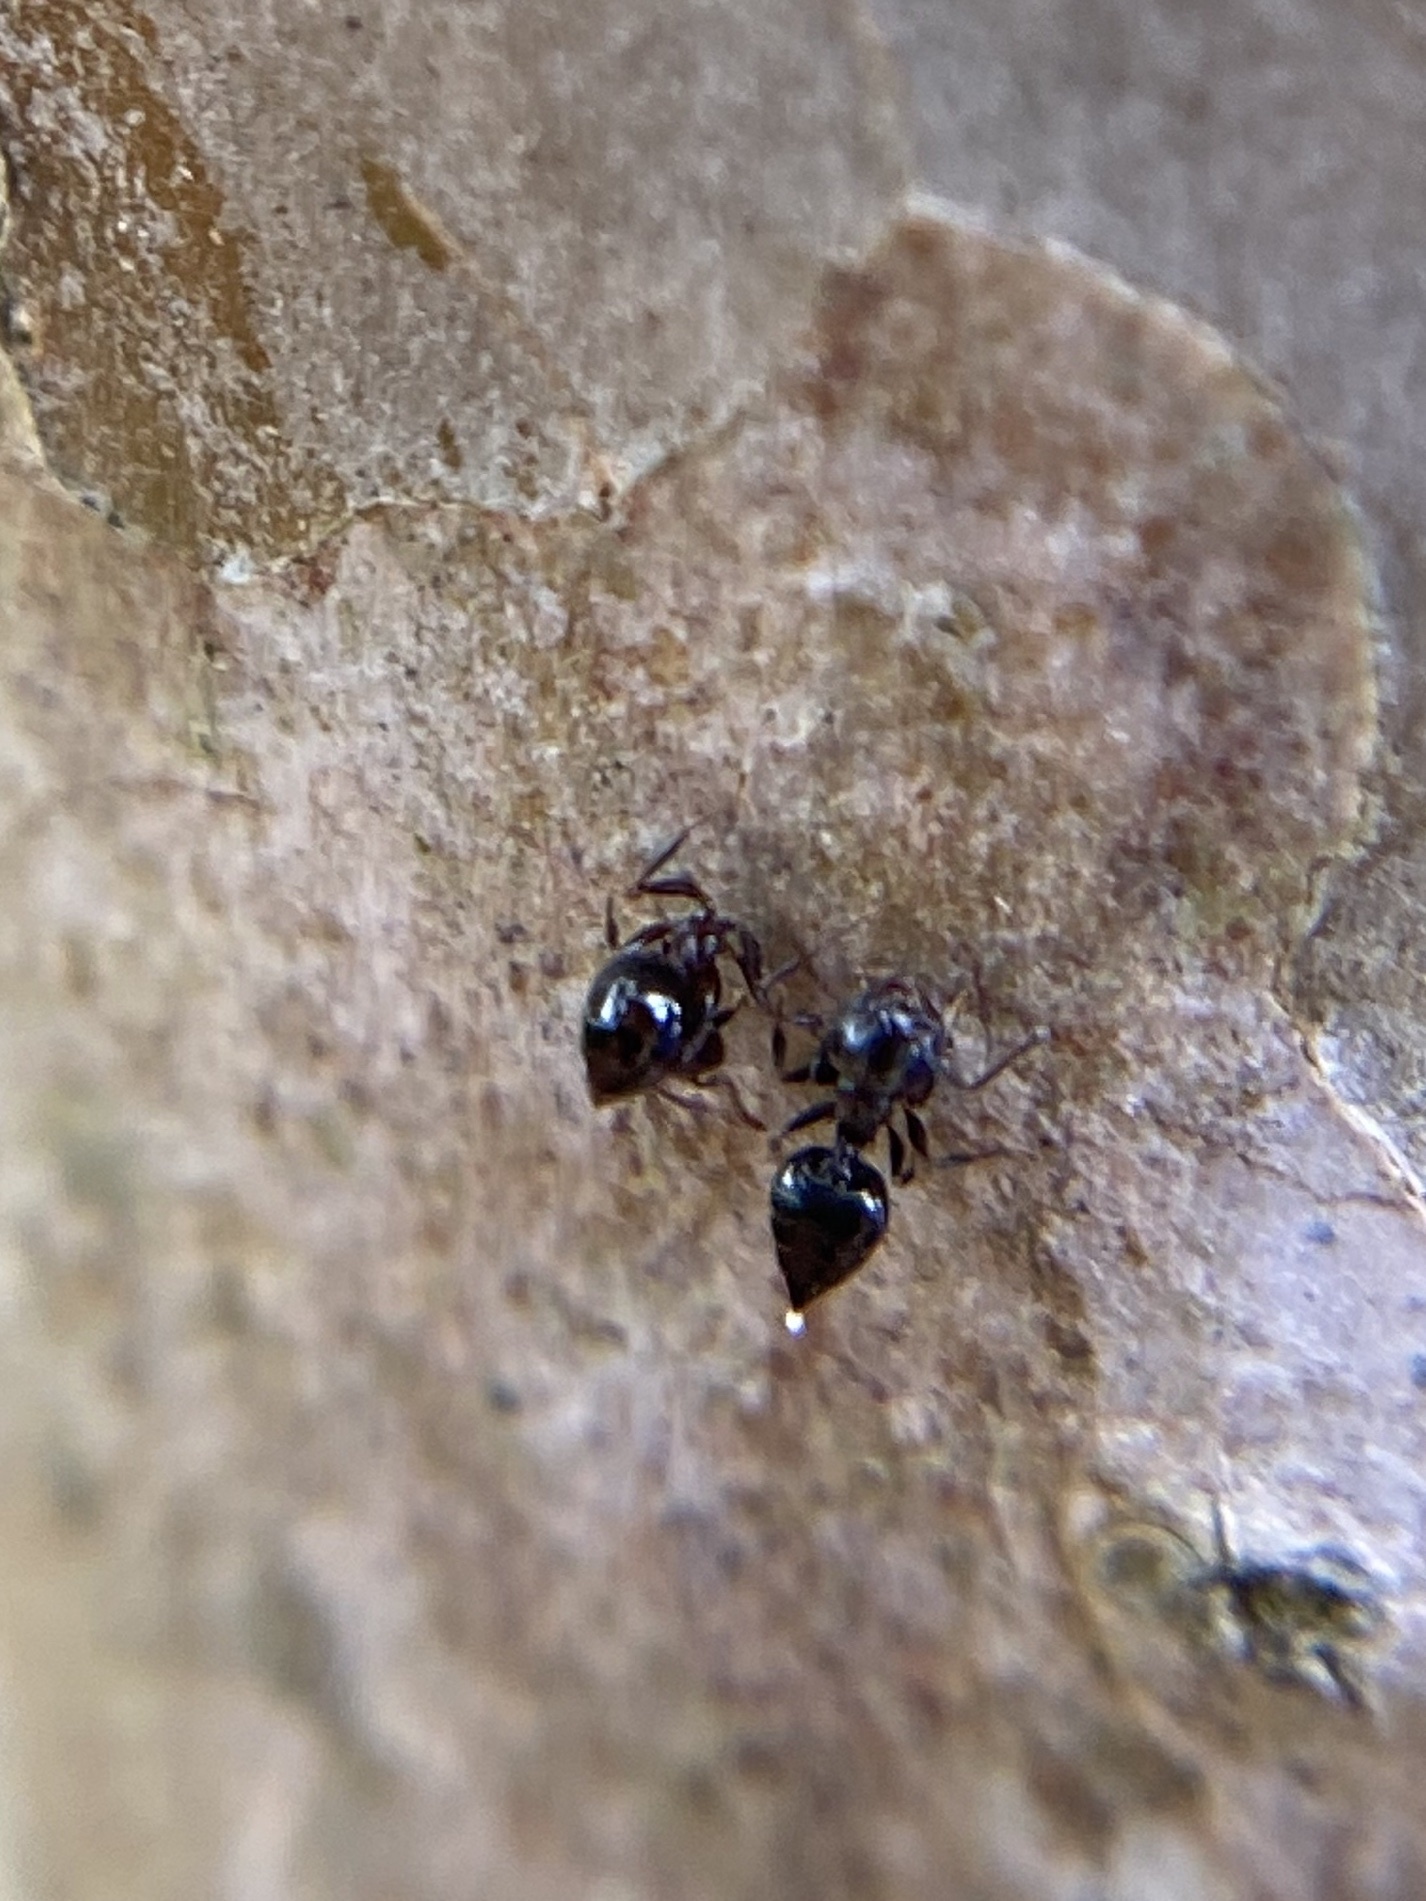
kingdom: Animalia
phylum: Arthropoda
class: Insecta
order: Hymenoptera
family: Formicidae
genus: Crematogaster
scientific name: Crematogaster ashmeadi
